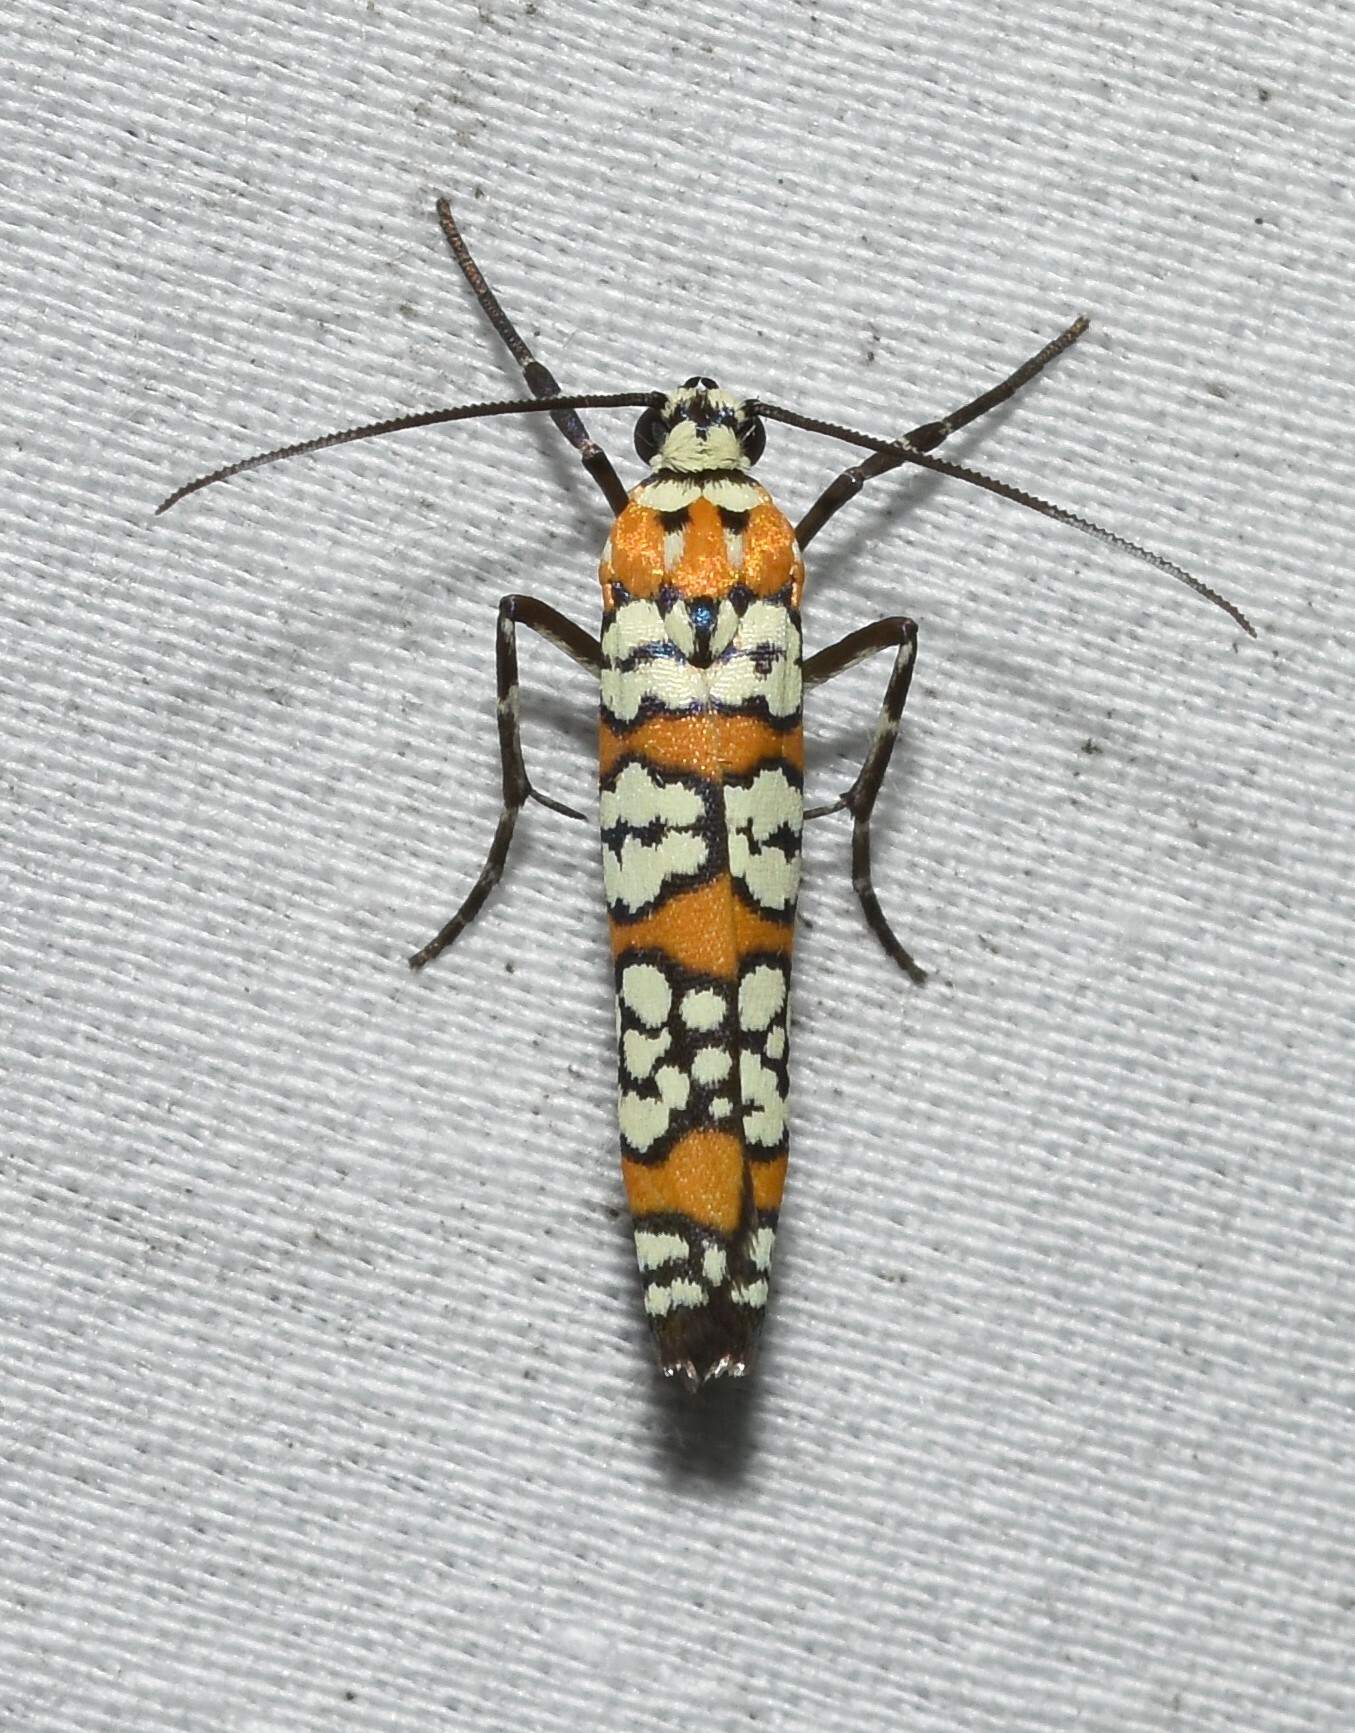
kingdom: Animalia
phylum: Arthropoda
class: Insecta
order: Lepidoptera
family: Attevidae
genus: Atteva
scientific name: Atteva punctella
